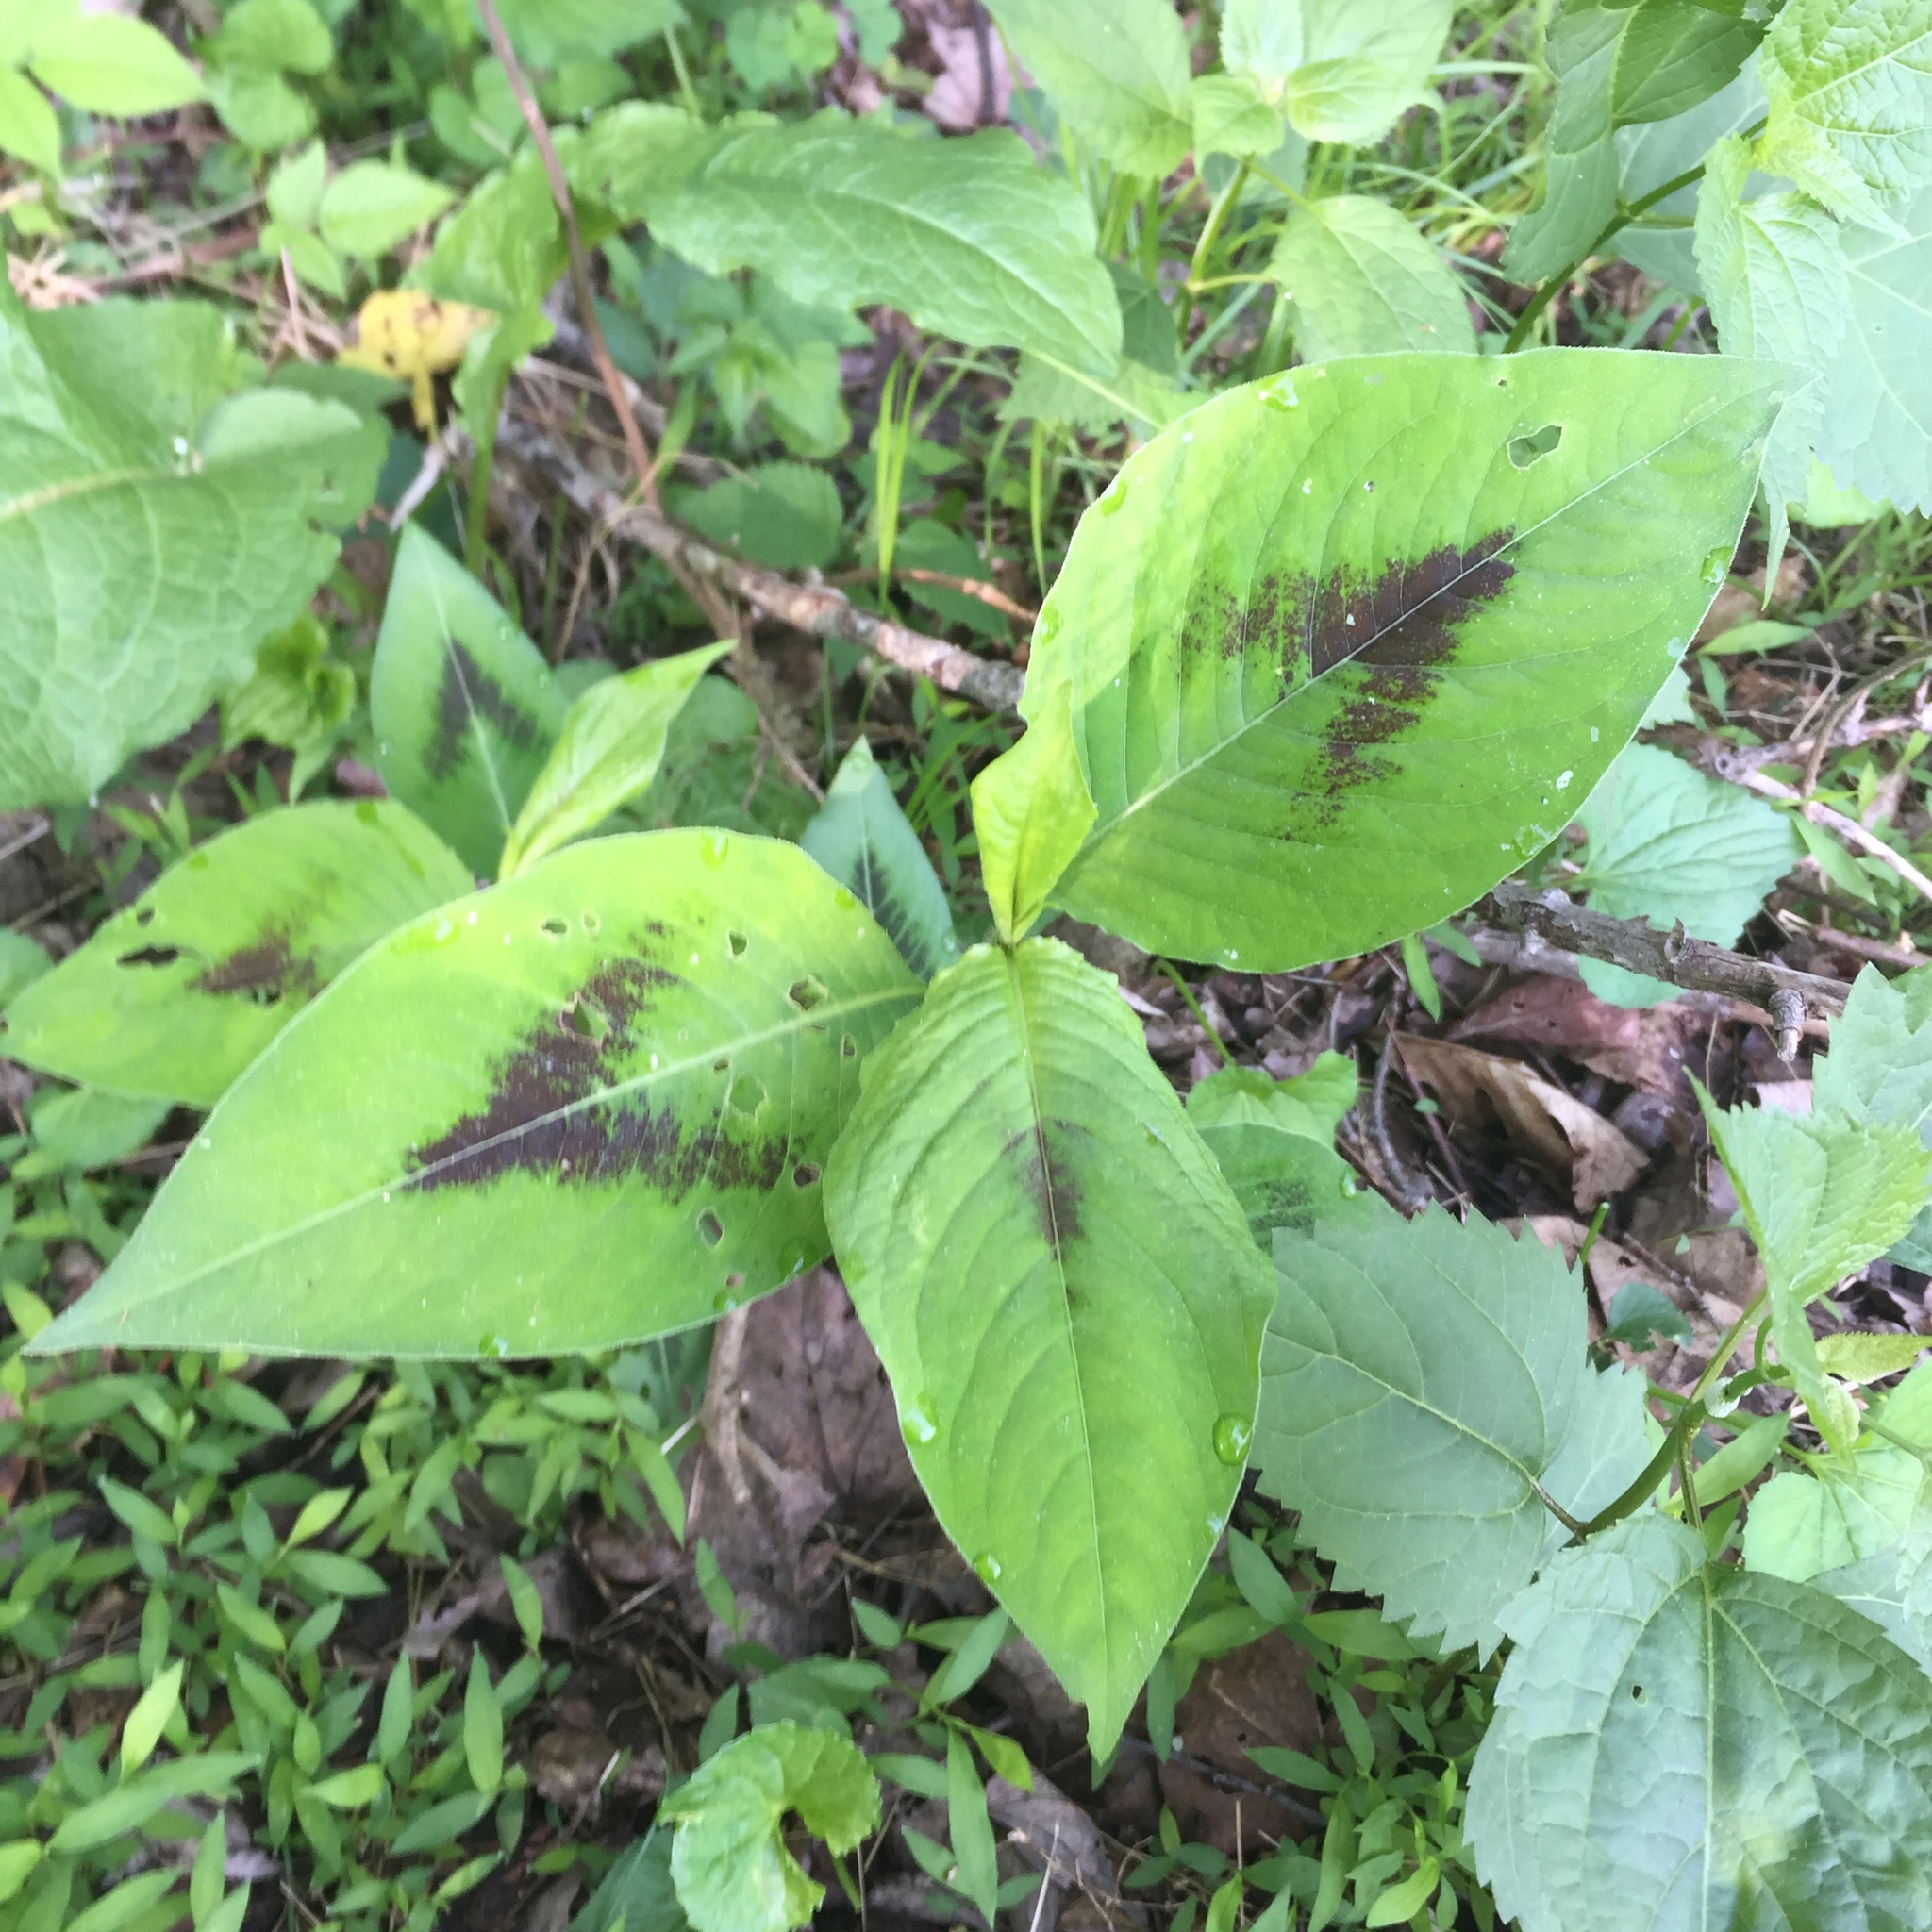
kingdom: Plantae
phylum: Tracheophyta
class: Magnoliopsida
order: Caryophyllales
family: Polygonaceae
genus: Persicaria
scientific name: Persicaria virginiana
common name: Jumpseed
